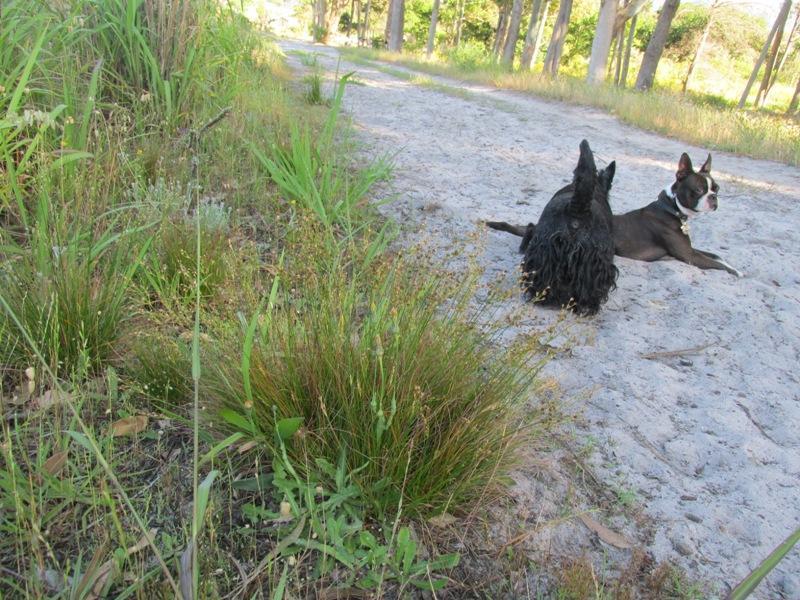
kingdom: Plantae
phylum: Tracheophyta
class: Liliopsida
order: Poales
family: Juncaceae
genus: Juncus
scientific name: Juncus capensis
